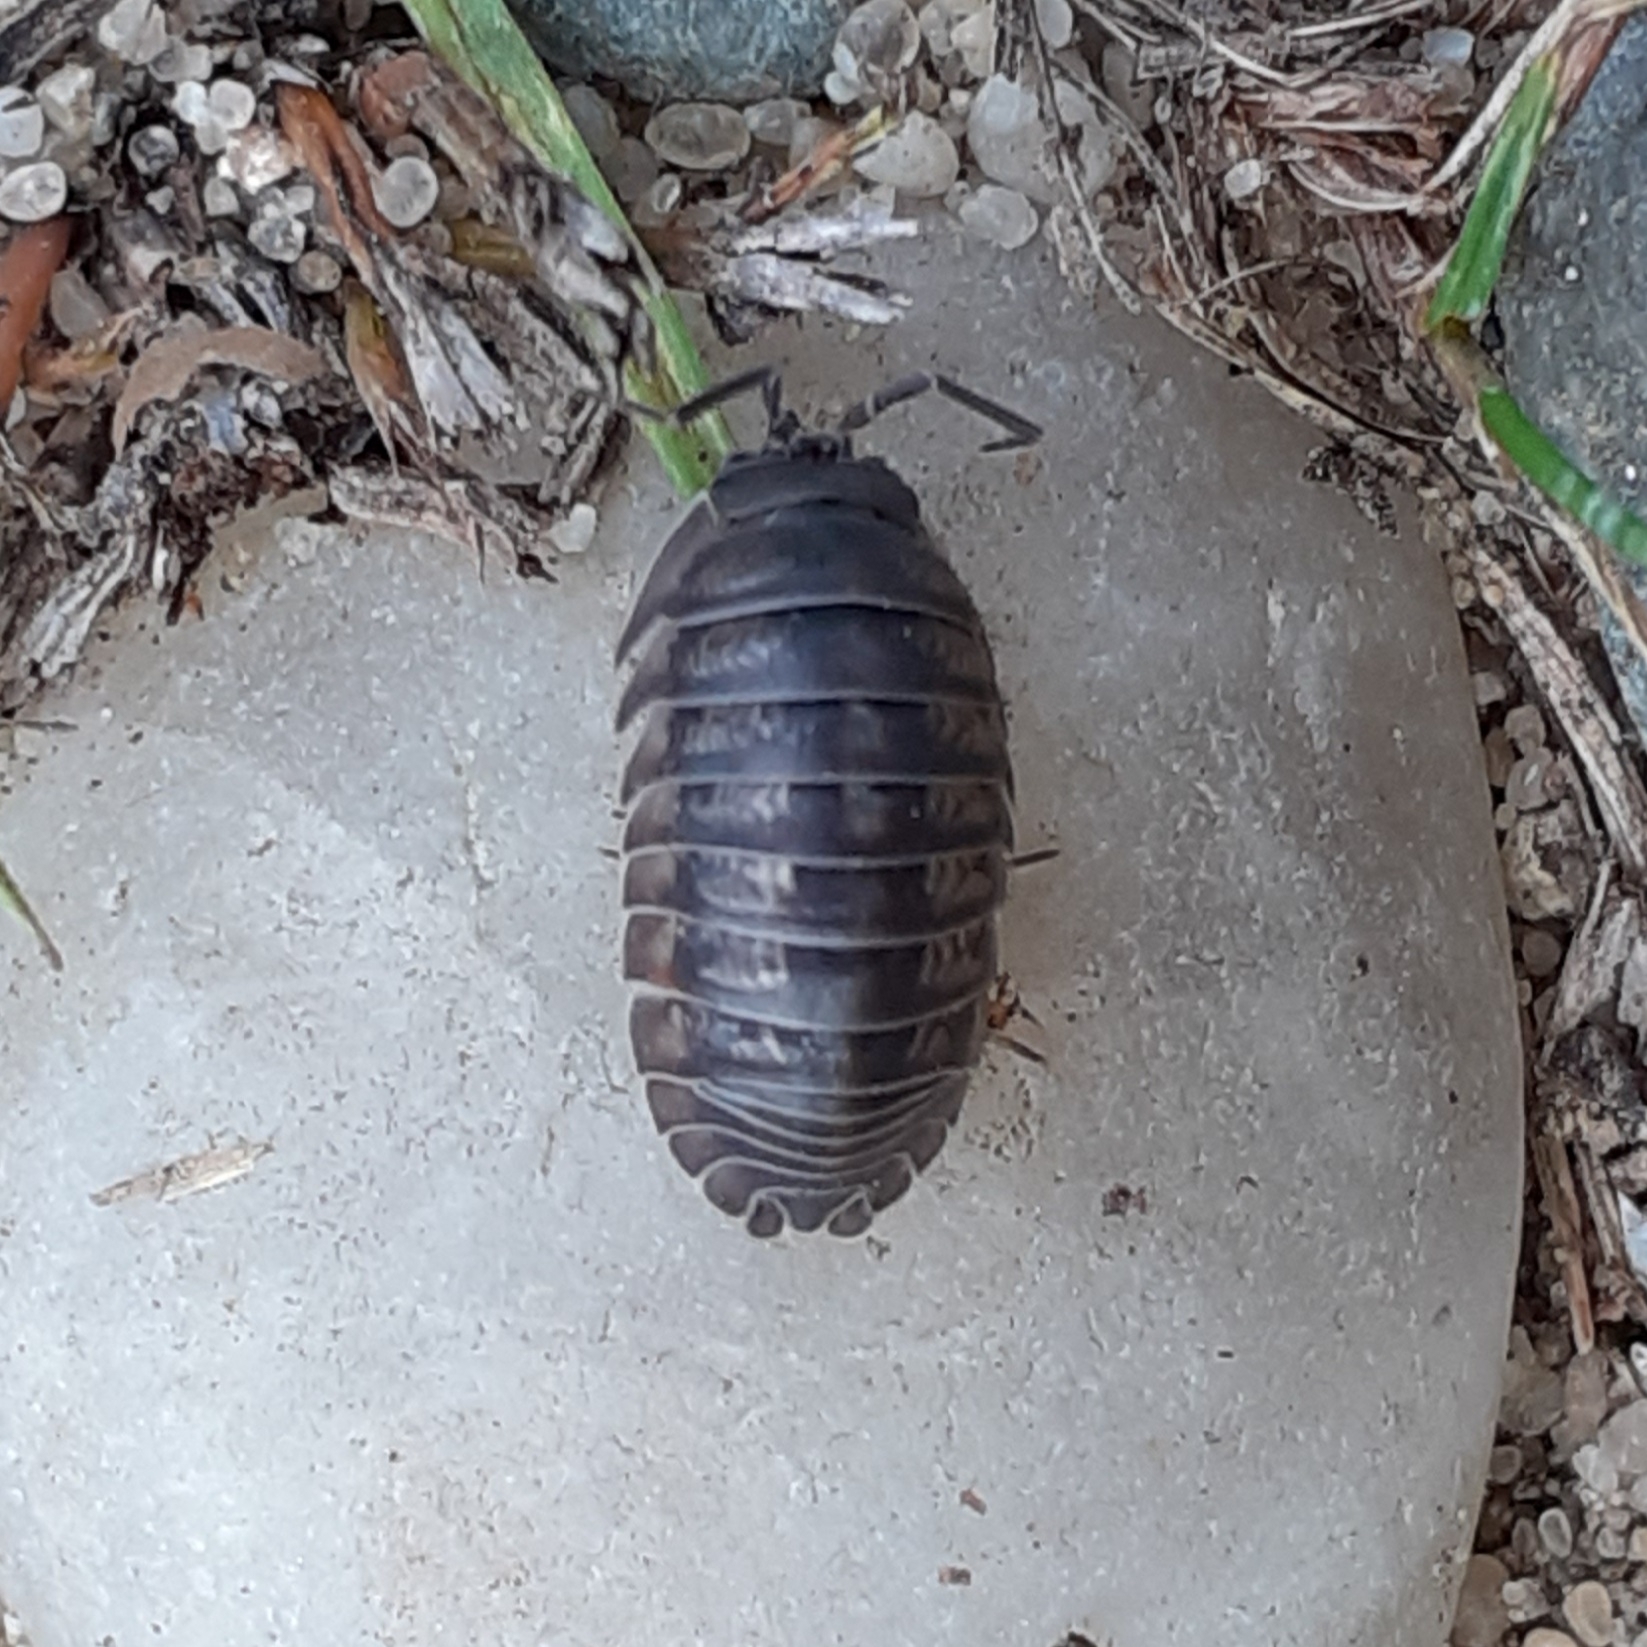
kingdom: Animalia
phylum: Arthropoda
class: Malacostraca
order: Isopoda
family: Armadillidiidae
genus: Armadillidium
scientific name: Armadillidium nasatum
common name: Isopod
